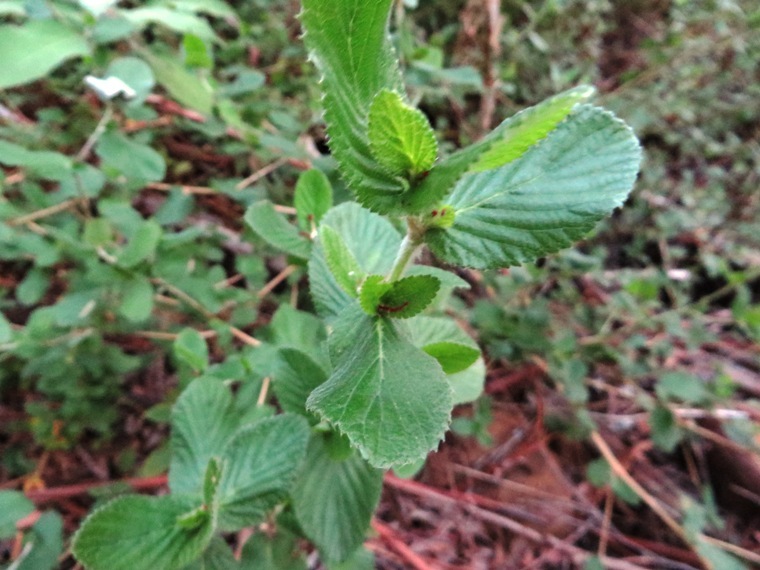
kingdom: Plantae
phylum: Tracheophyta
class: Magnoliopsida
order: Rosales
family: Rosaceae
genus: Cliffortia
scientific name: Cliffortia odorata
